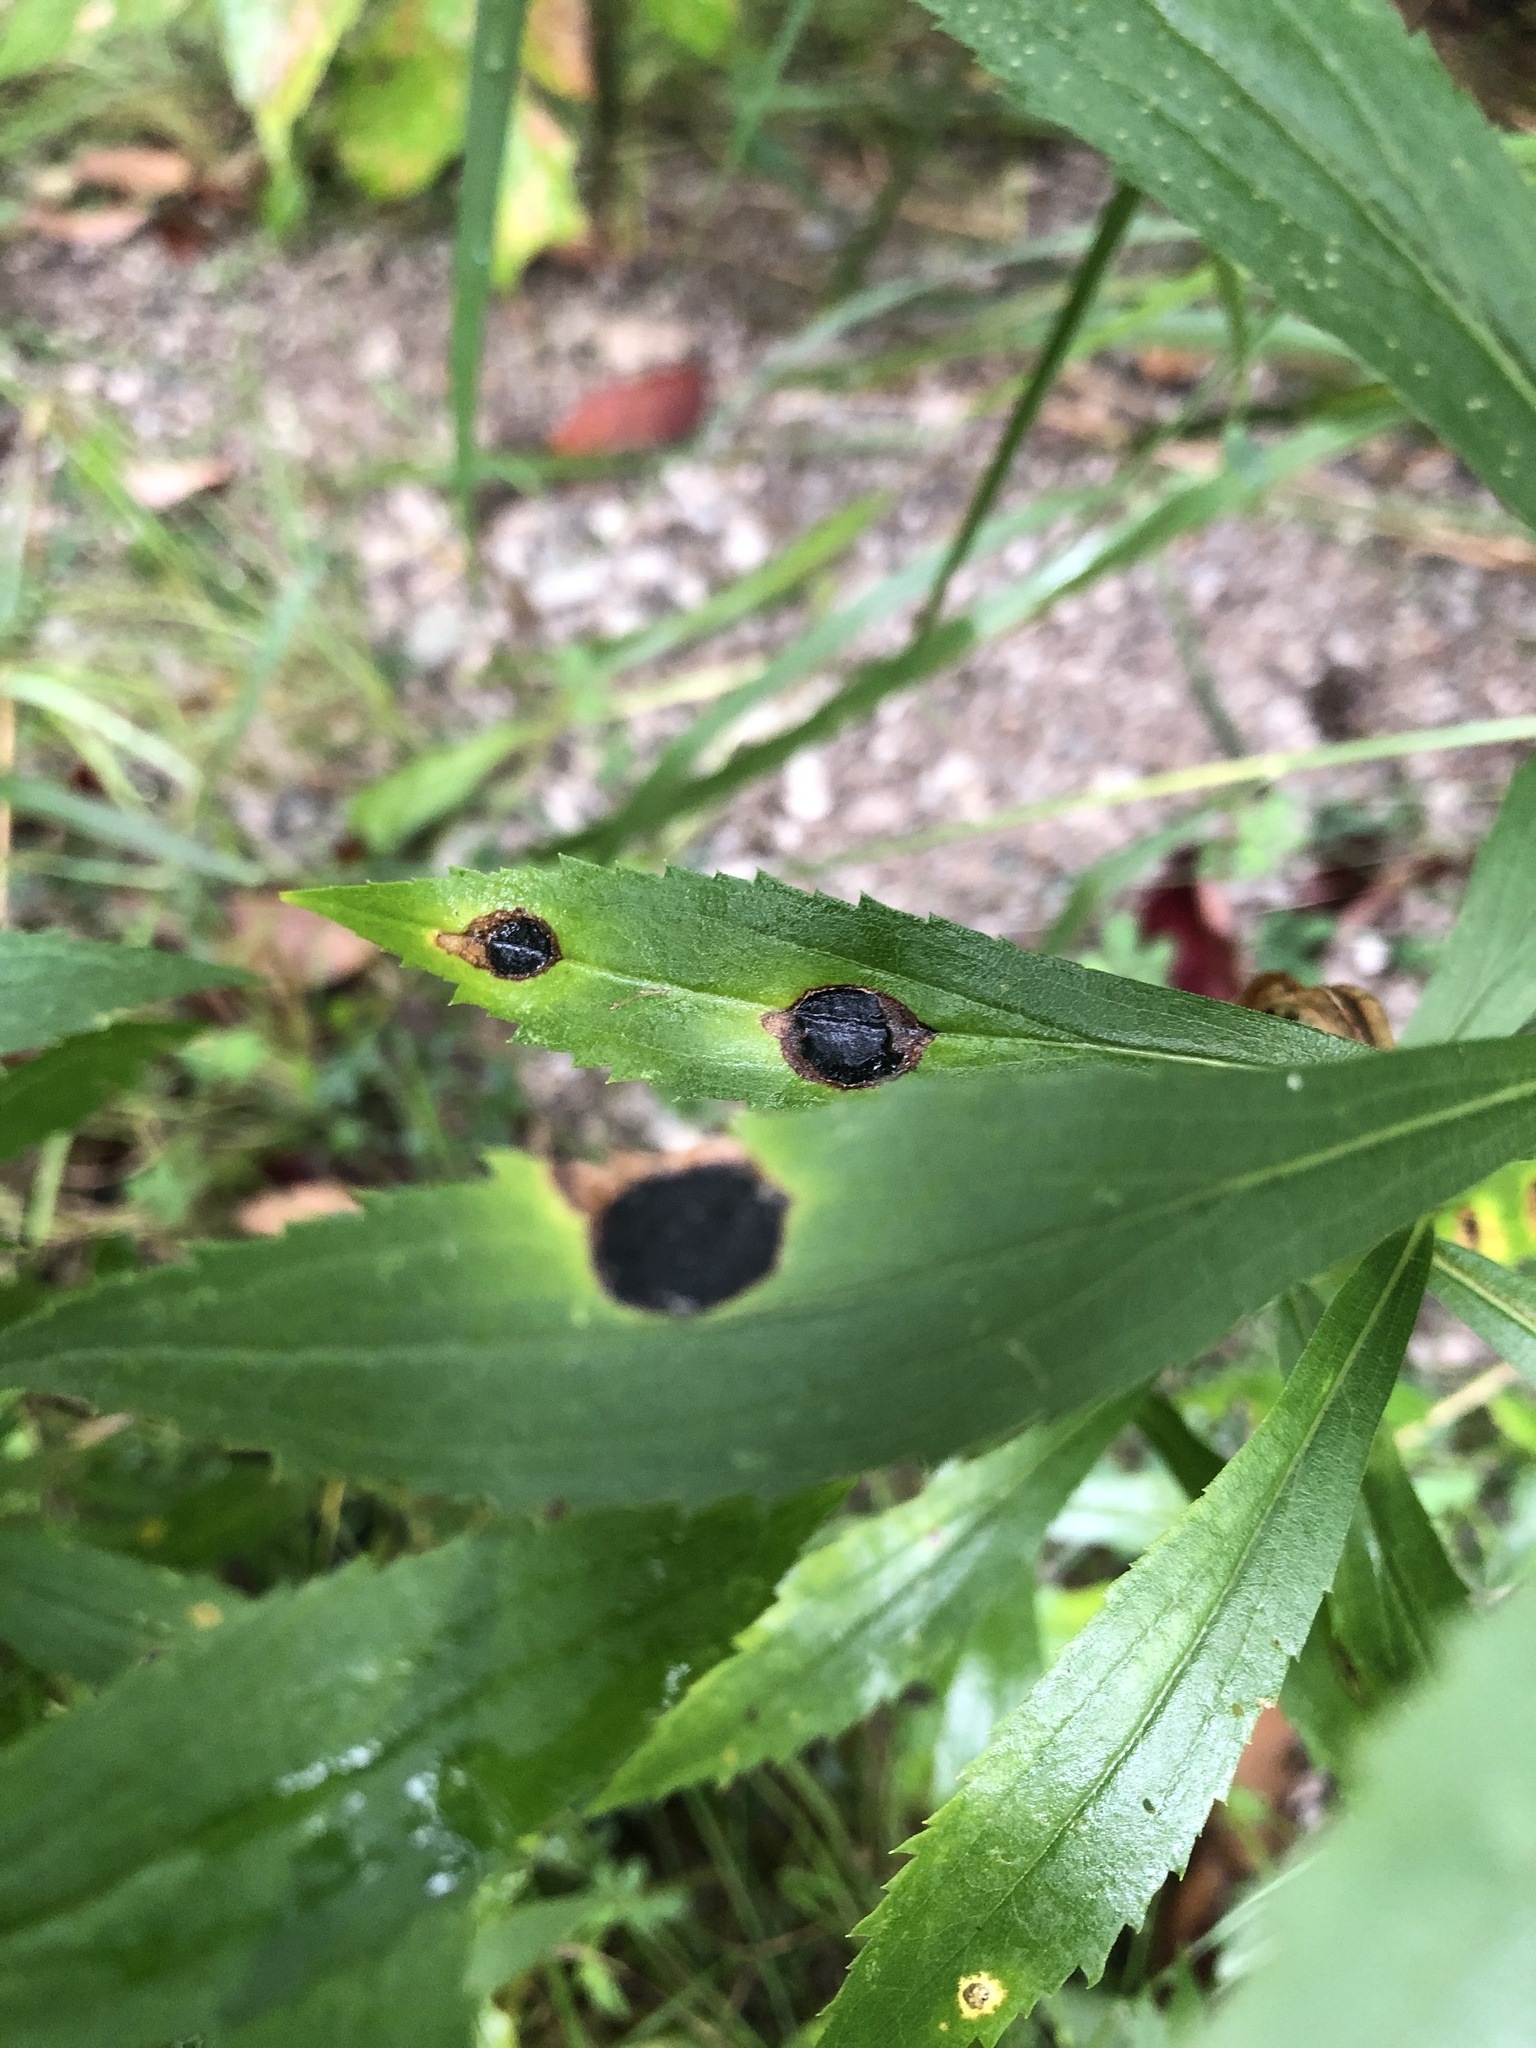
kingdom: Animalia
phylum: Arthropoda
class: Insecta
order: Diptera
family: Cecidomyiidae
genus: Asteromyia
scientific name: Asteromyia carbonifera
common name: Carbonifera goldenrod gall midge
